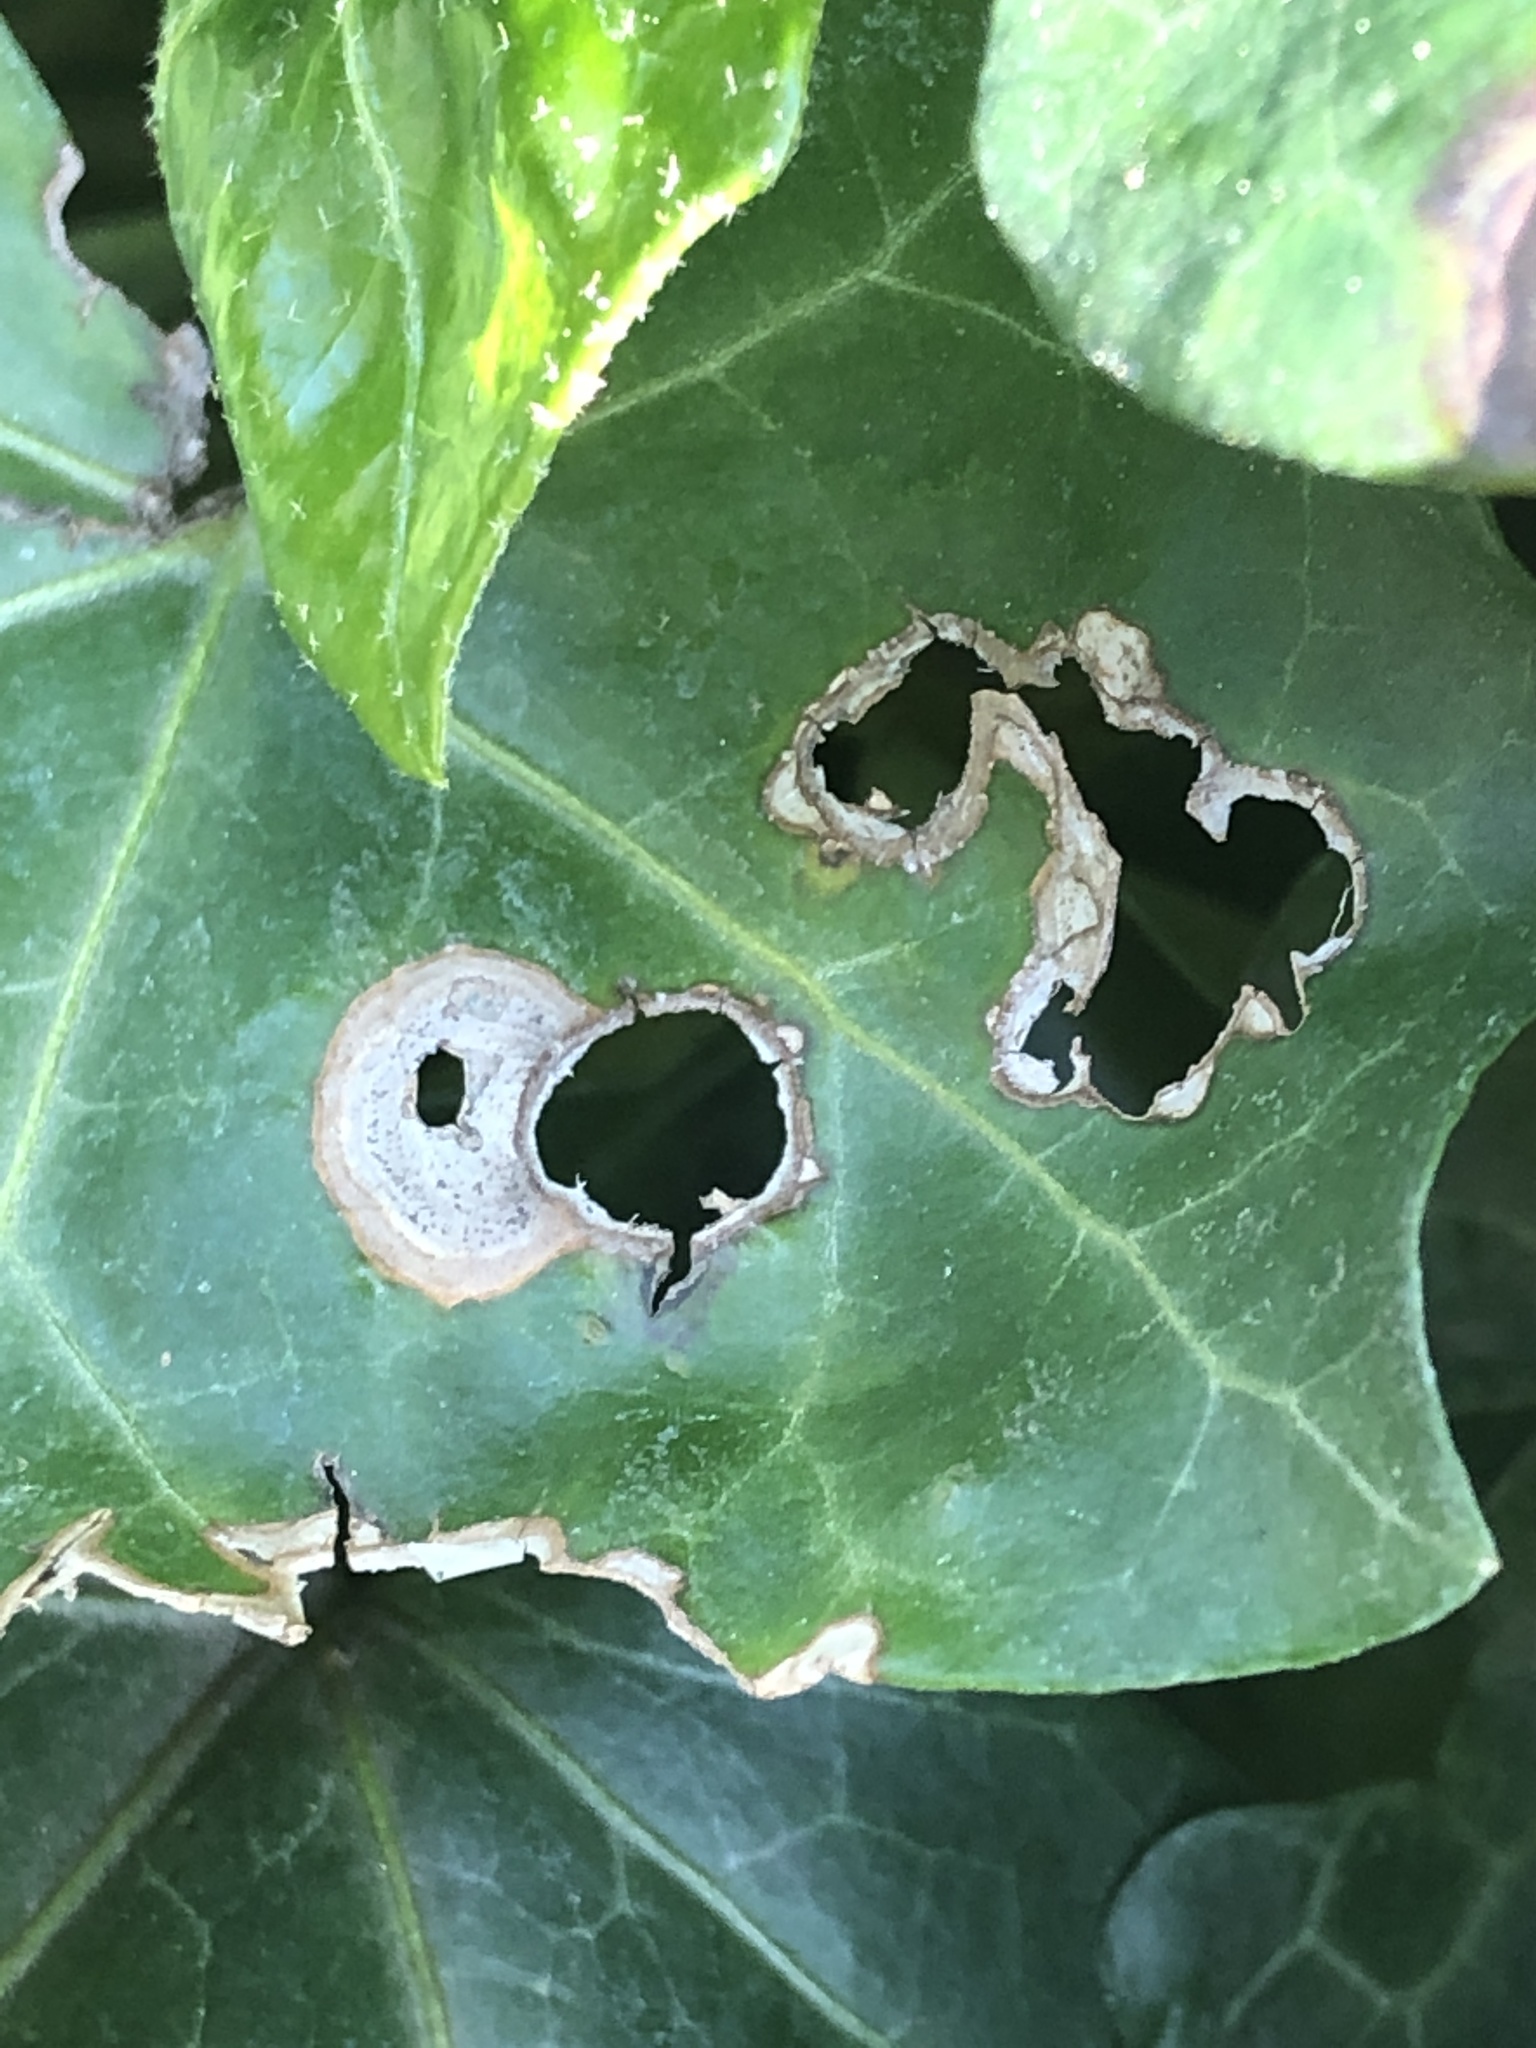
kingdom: Fungi
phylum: Ascomycota
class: Dothideomycetes
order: Pleosporales
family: Didymellaceae
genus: Boeremia
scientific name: Boeremia hedericola
